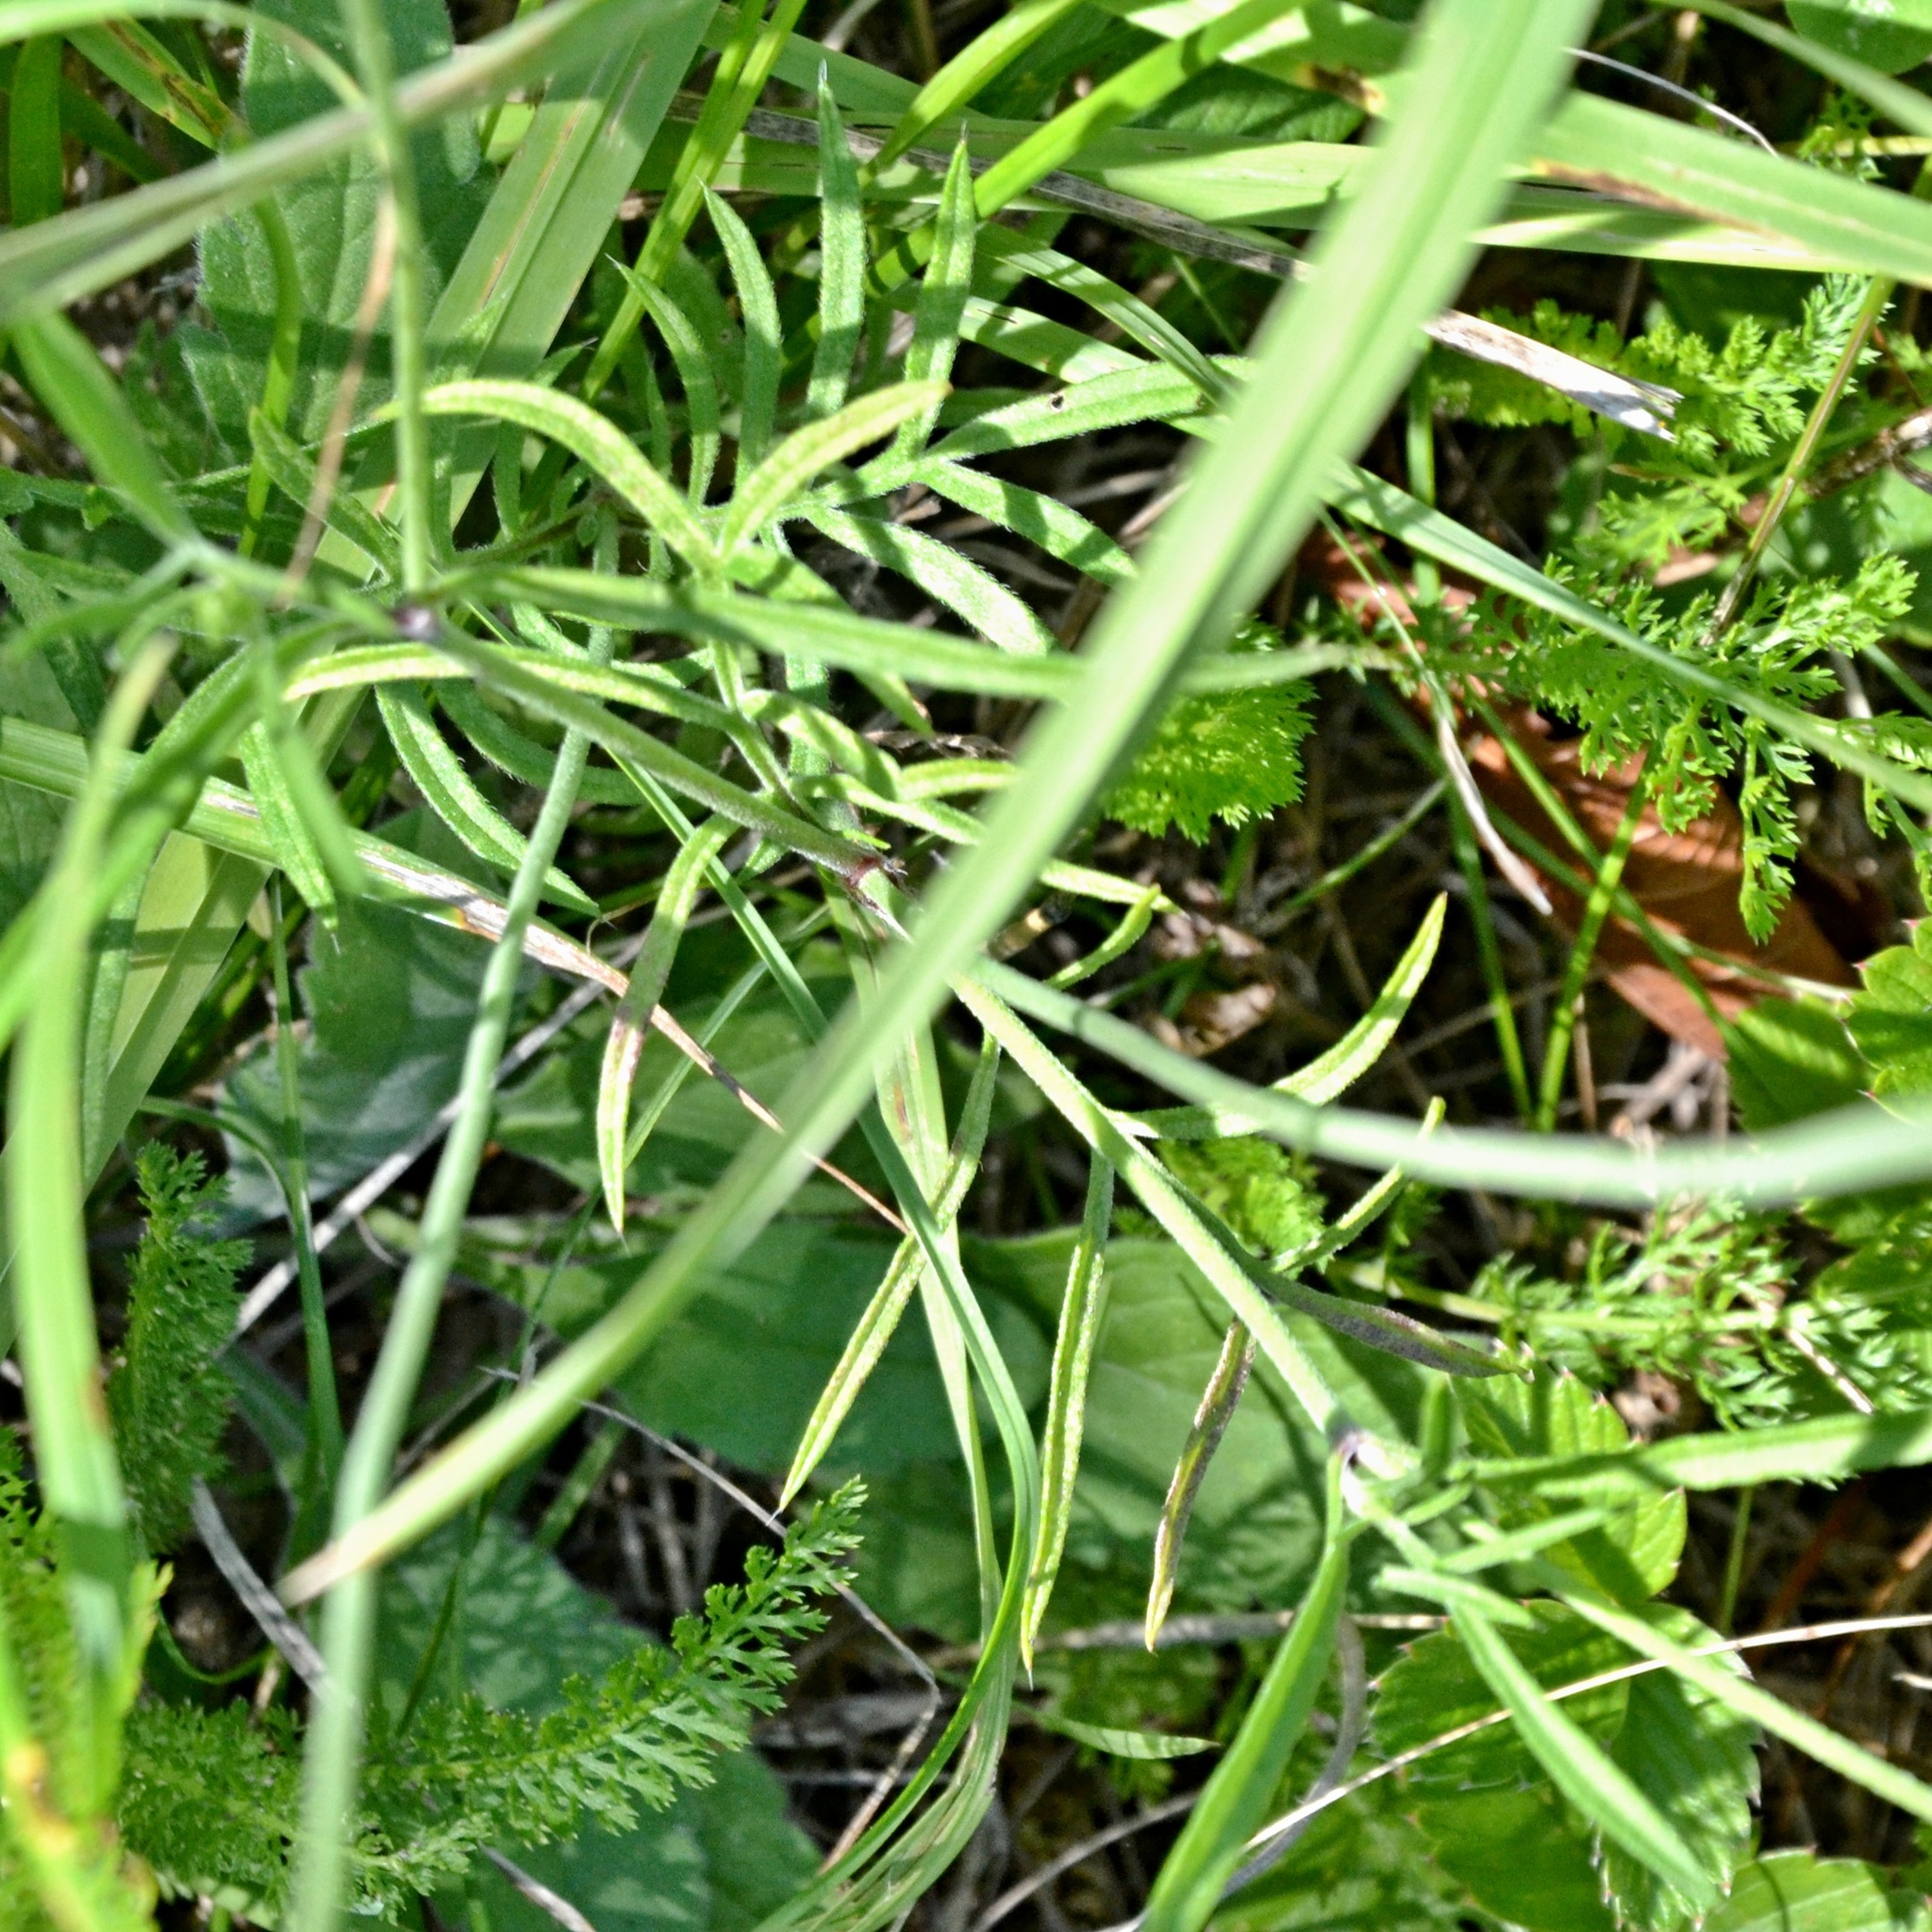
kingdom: Plantae
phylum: Tracheophyta
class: Magnoliopsida
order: Dipsacales
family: Caprifoliaceae
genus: Scabiosa
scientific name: Scabiosa ochroleuca
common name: Cream pincushions
